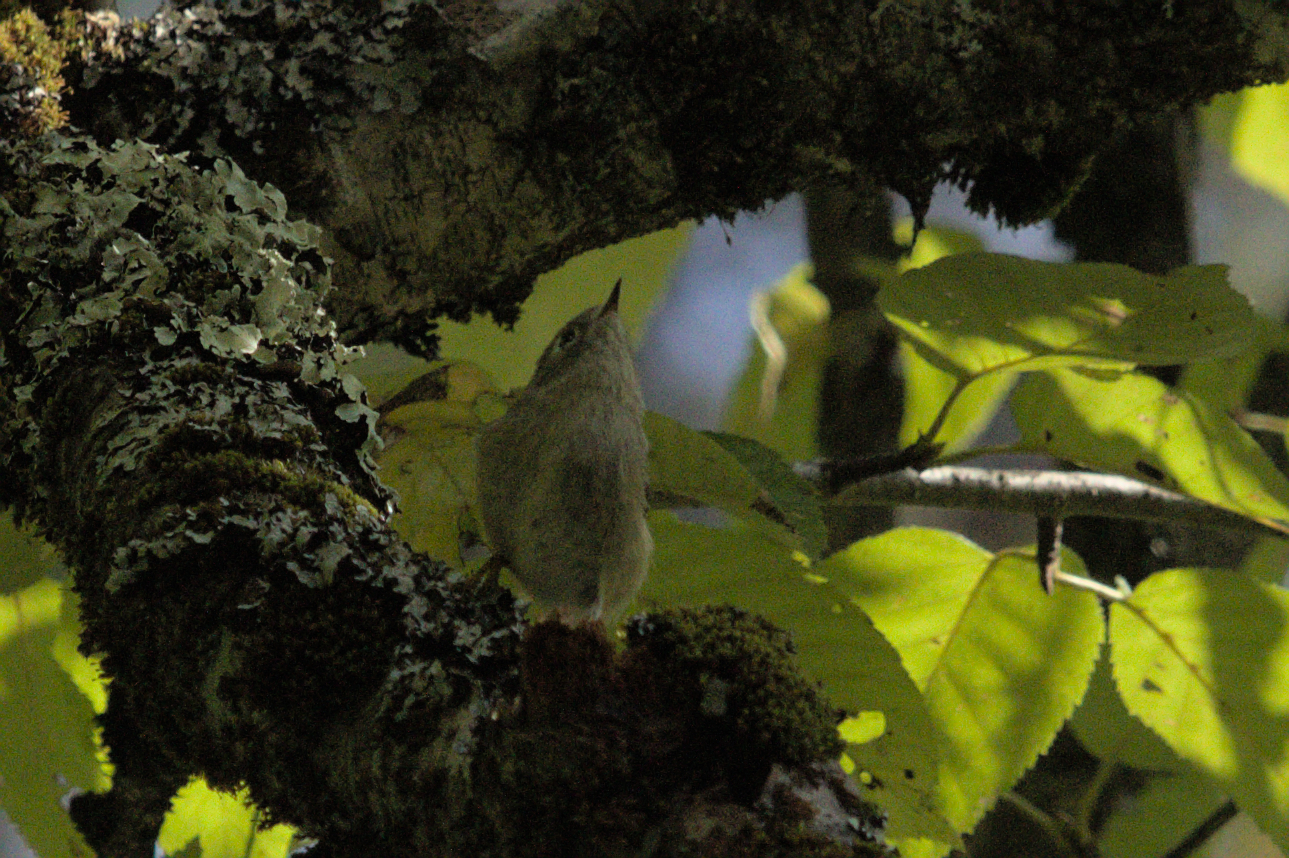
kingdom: Animalia
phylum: Chordata
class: Aves
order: Passeriformes
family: Regulidae
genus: Regulus
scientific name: Regulus calendula
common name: Ruby-crowned kinglet
